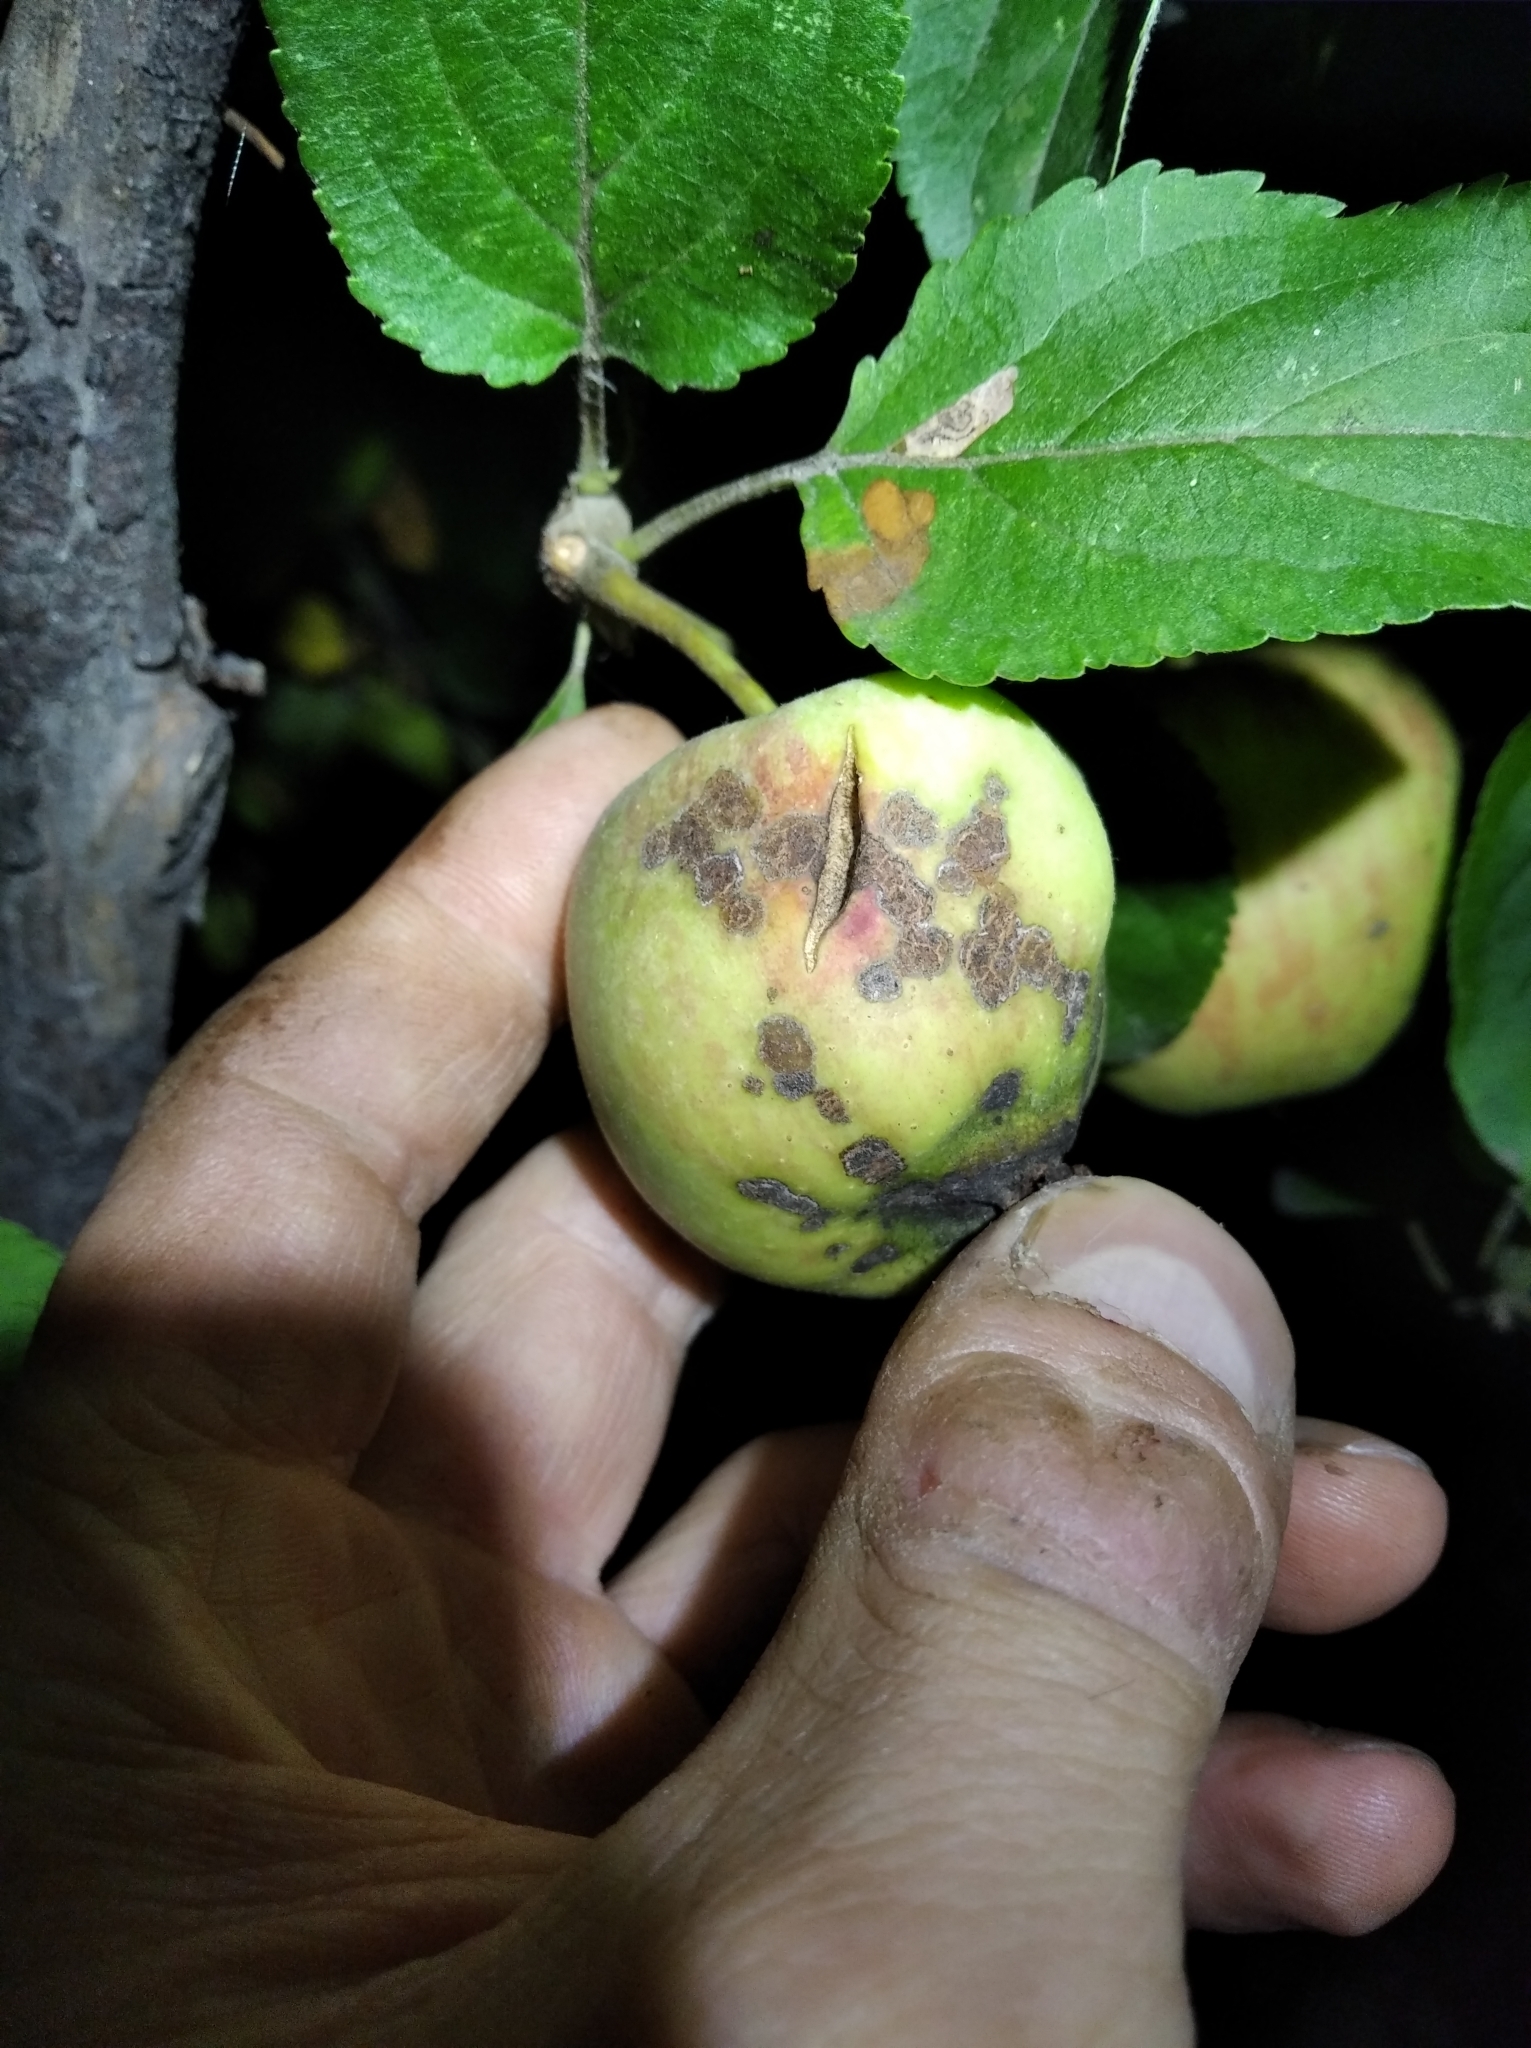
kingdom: Fungi
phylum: Ascomycota
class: Dothideomycetes
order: Venturiales
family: Venturiaceae
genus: Venturia
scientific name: Venturia inaequalis
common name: Apple scab
